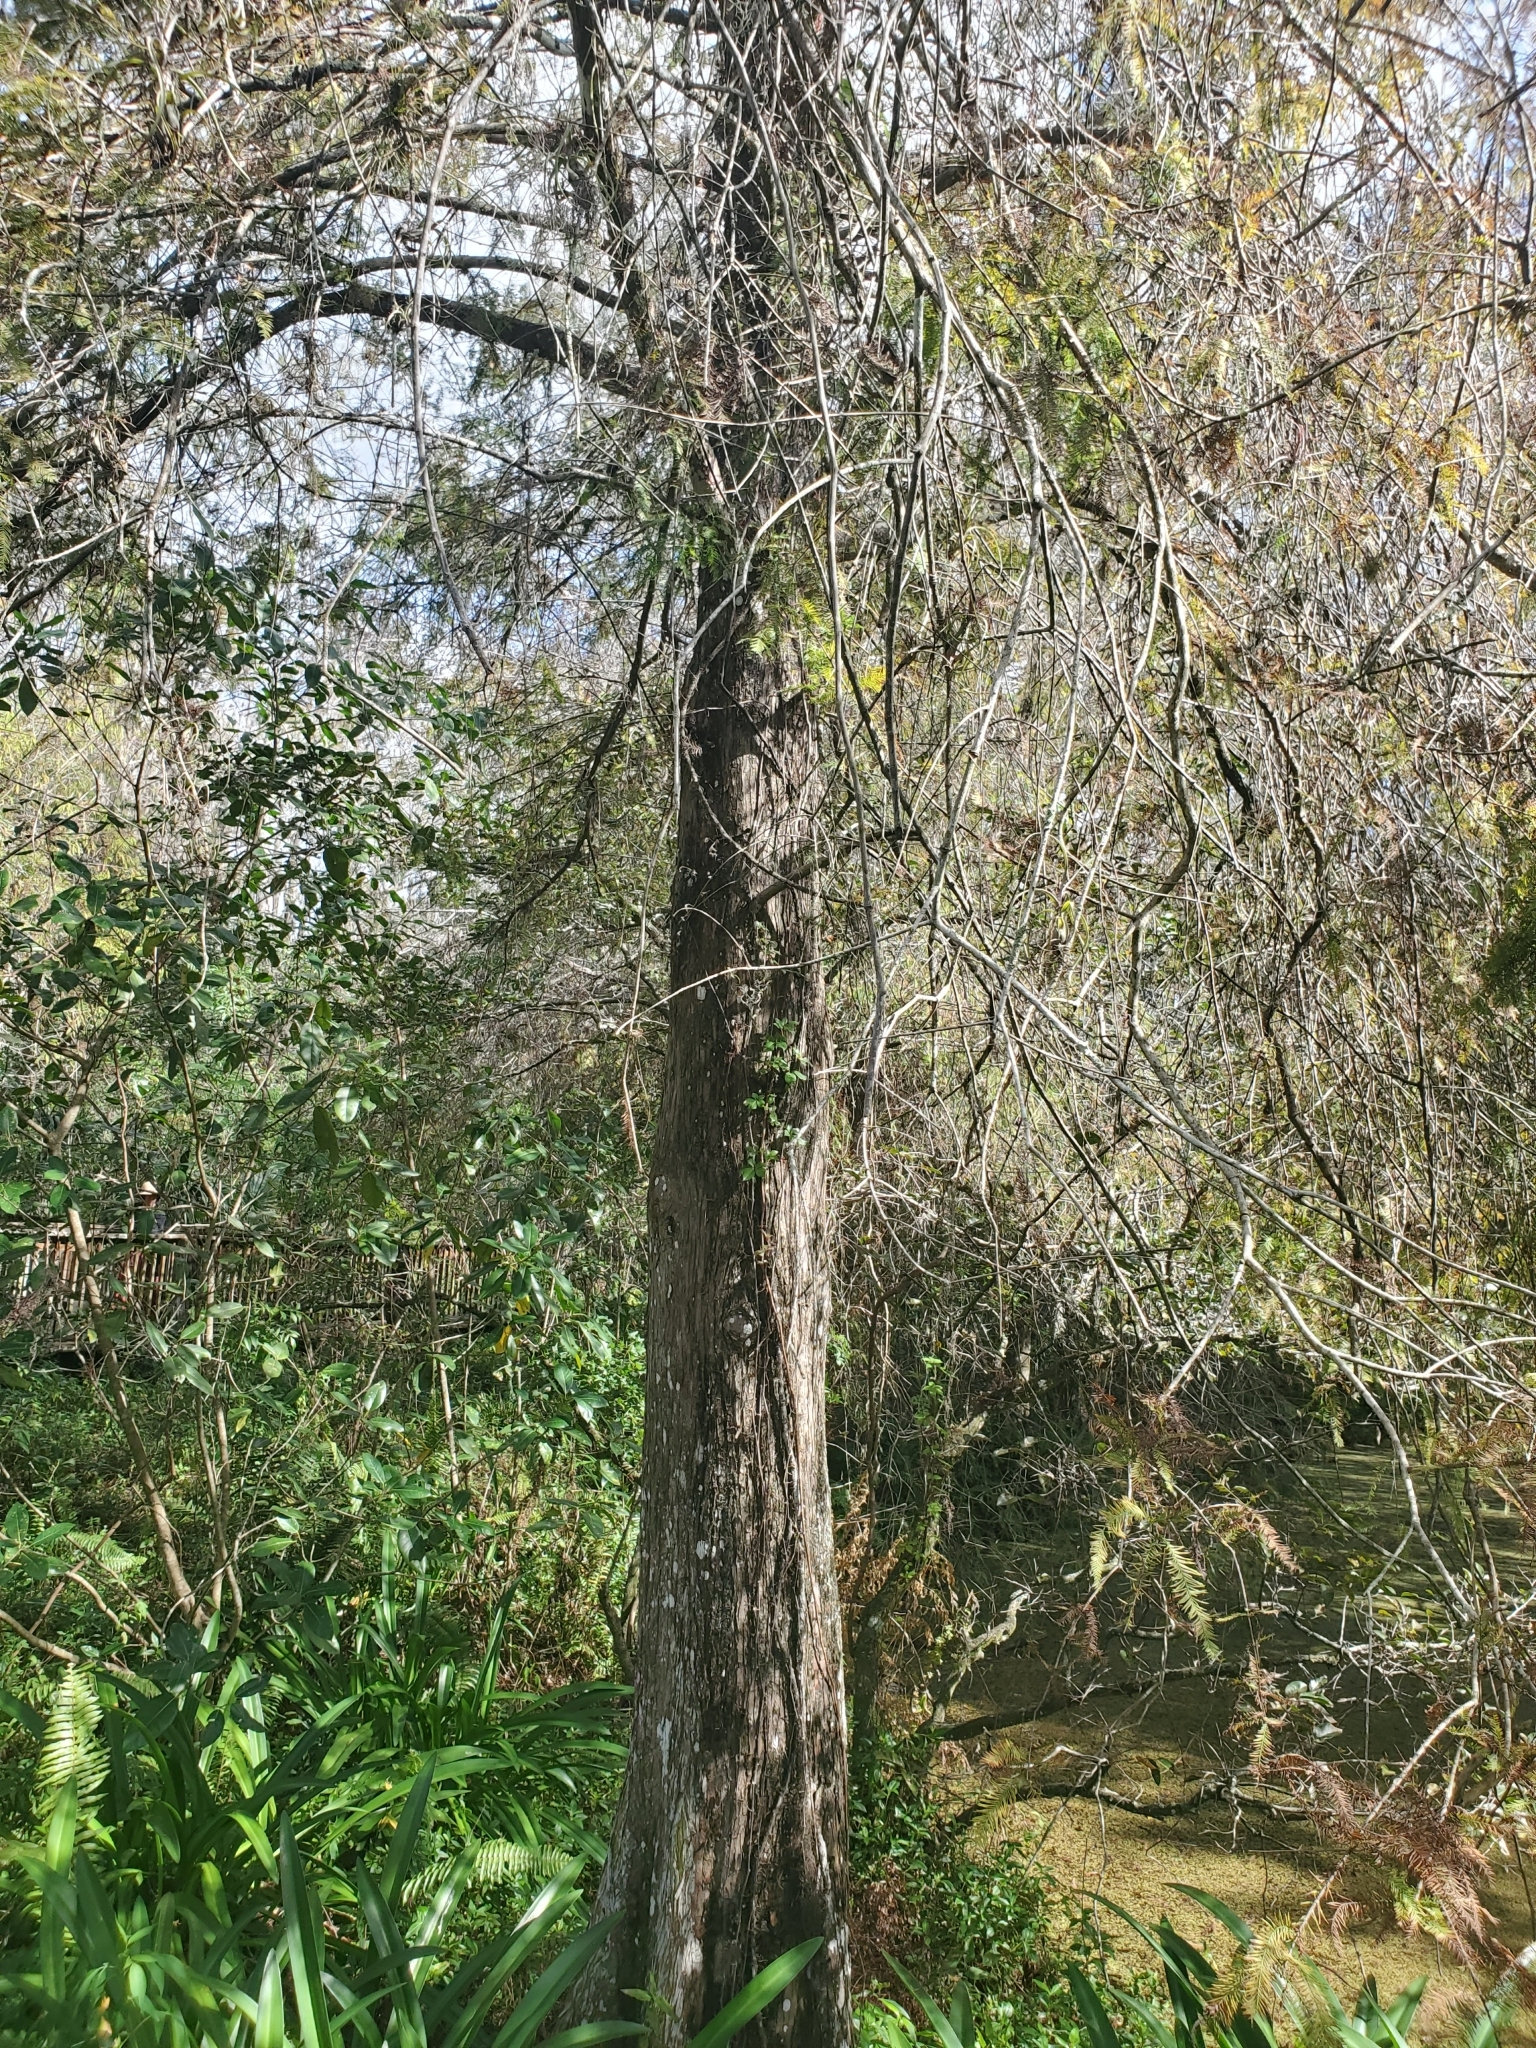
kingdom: Plantae
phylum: Tracheophyta
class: Pinopsida
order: Pinales
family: Cupressaceae
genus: Taxodium
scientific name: Taxodium distichum
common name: Bald cypress
